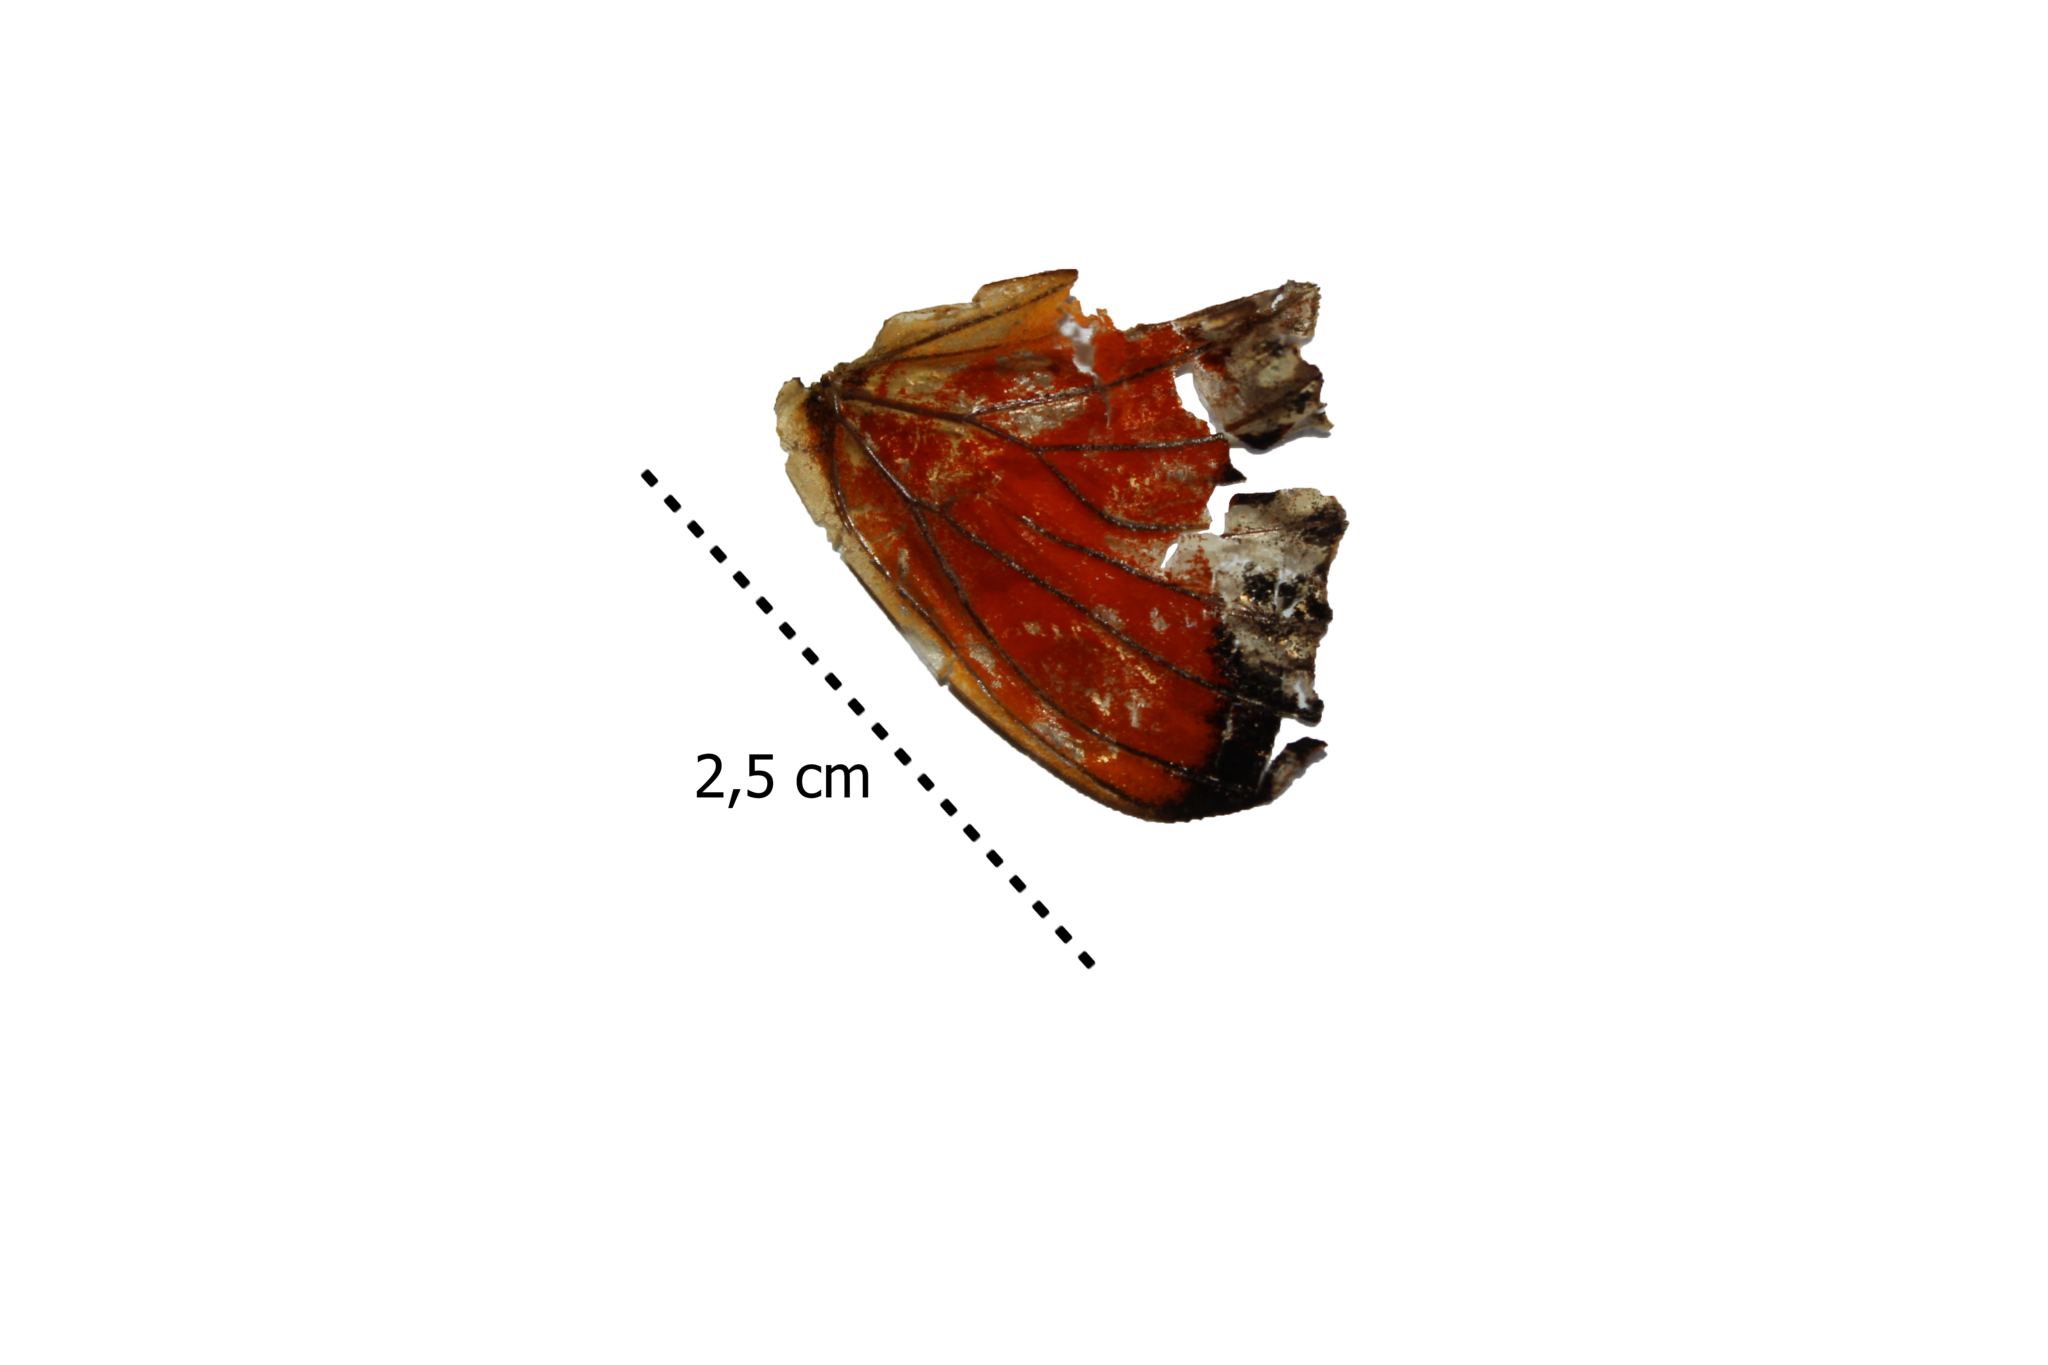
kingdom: Animalia
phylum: Arthropoda
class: Insecta
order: Lepidoptera
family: Nymphalidae
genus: Dione
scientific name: Dione juno
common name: Juno silverspot
